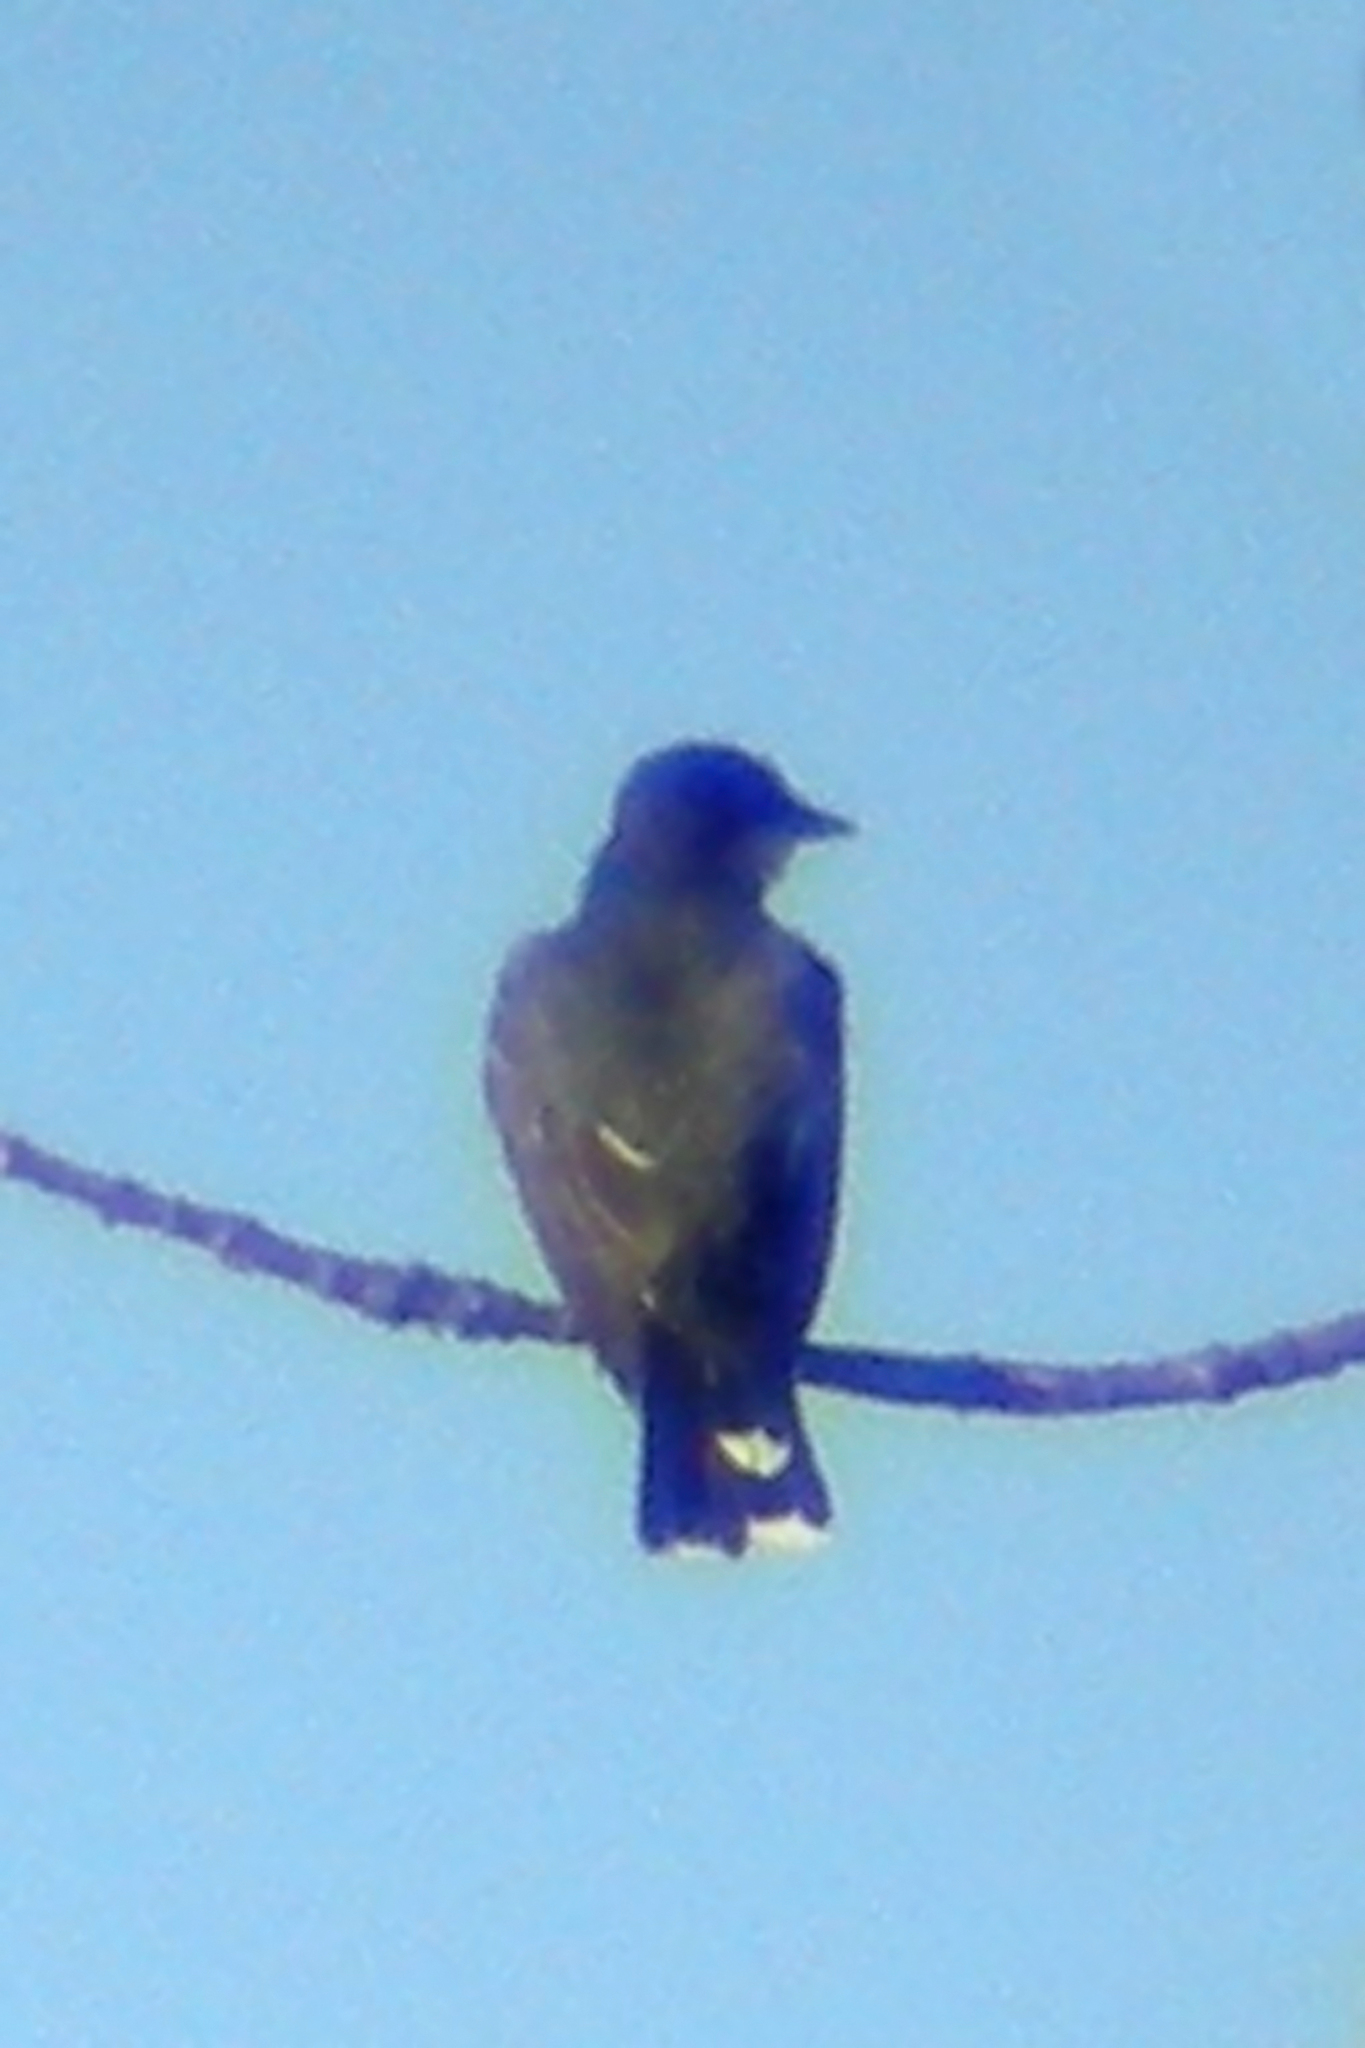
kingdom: Animalia
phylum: Chordata
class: Aves
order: Passeriformes
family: Tyrannidae
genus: Tyrannus
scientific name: Tyrannus tyrannus
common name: Eastern kingbird
